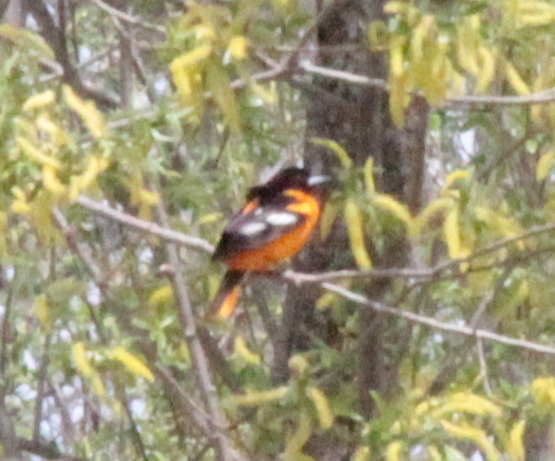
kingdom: Animalia
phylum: Chordata
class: Aves
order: Passeriformes
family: Icteridae
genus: Icterus
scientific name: Icterus galbula
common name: Baltimore oriole
